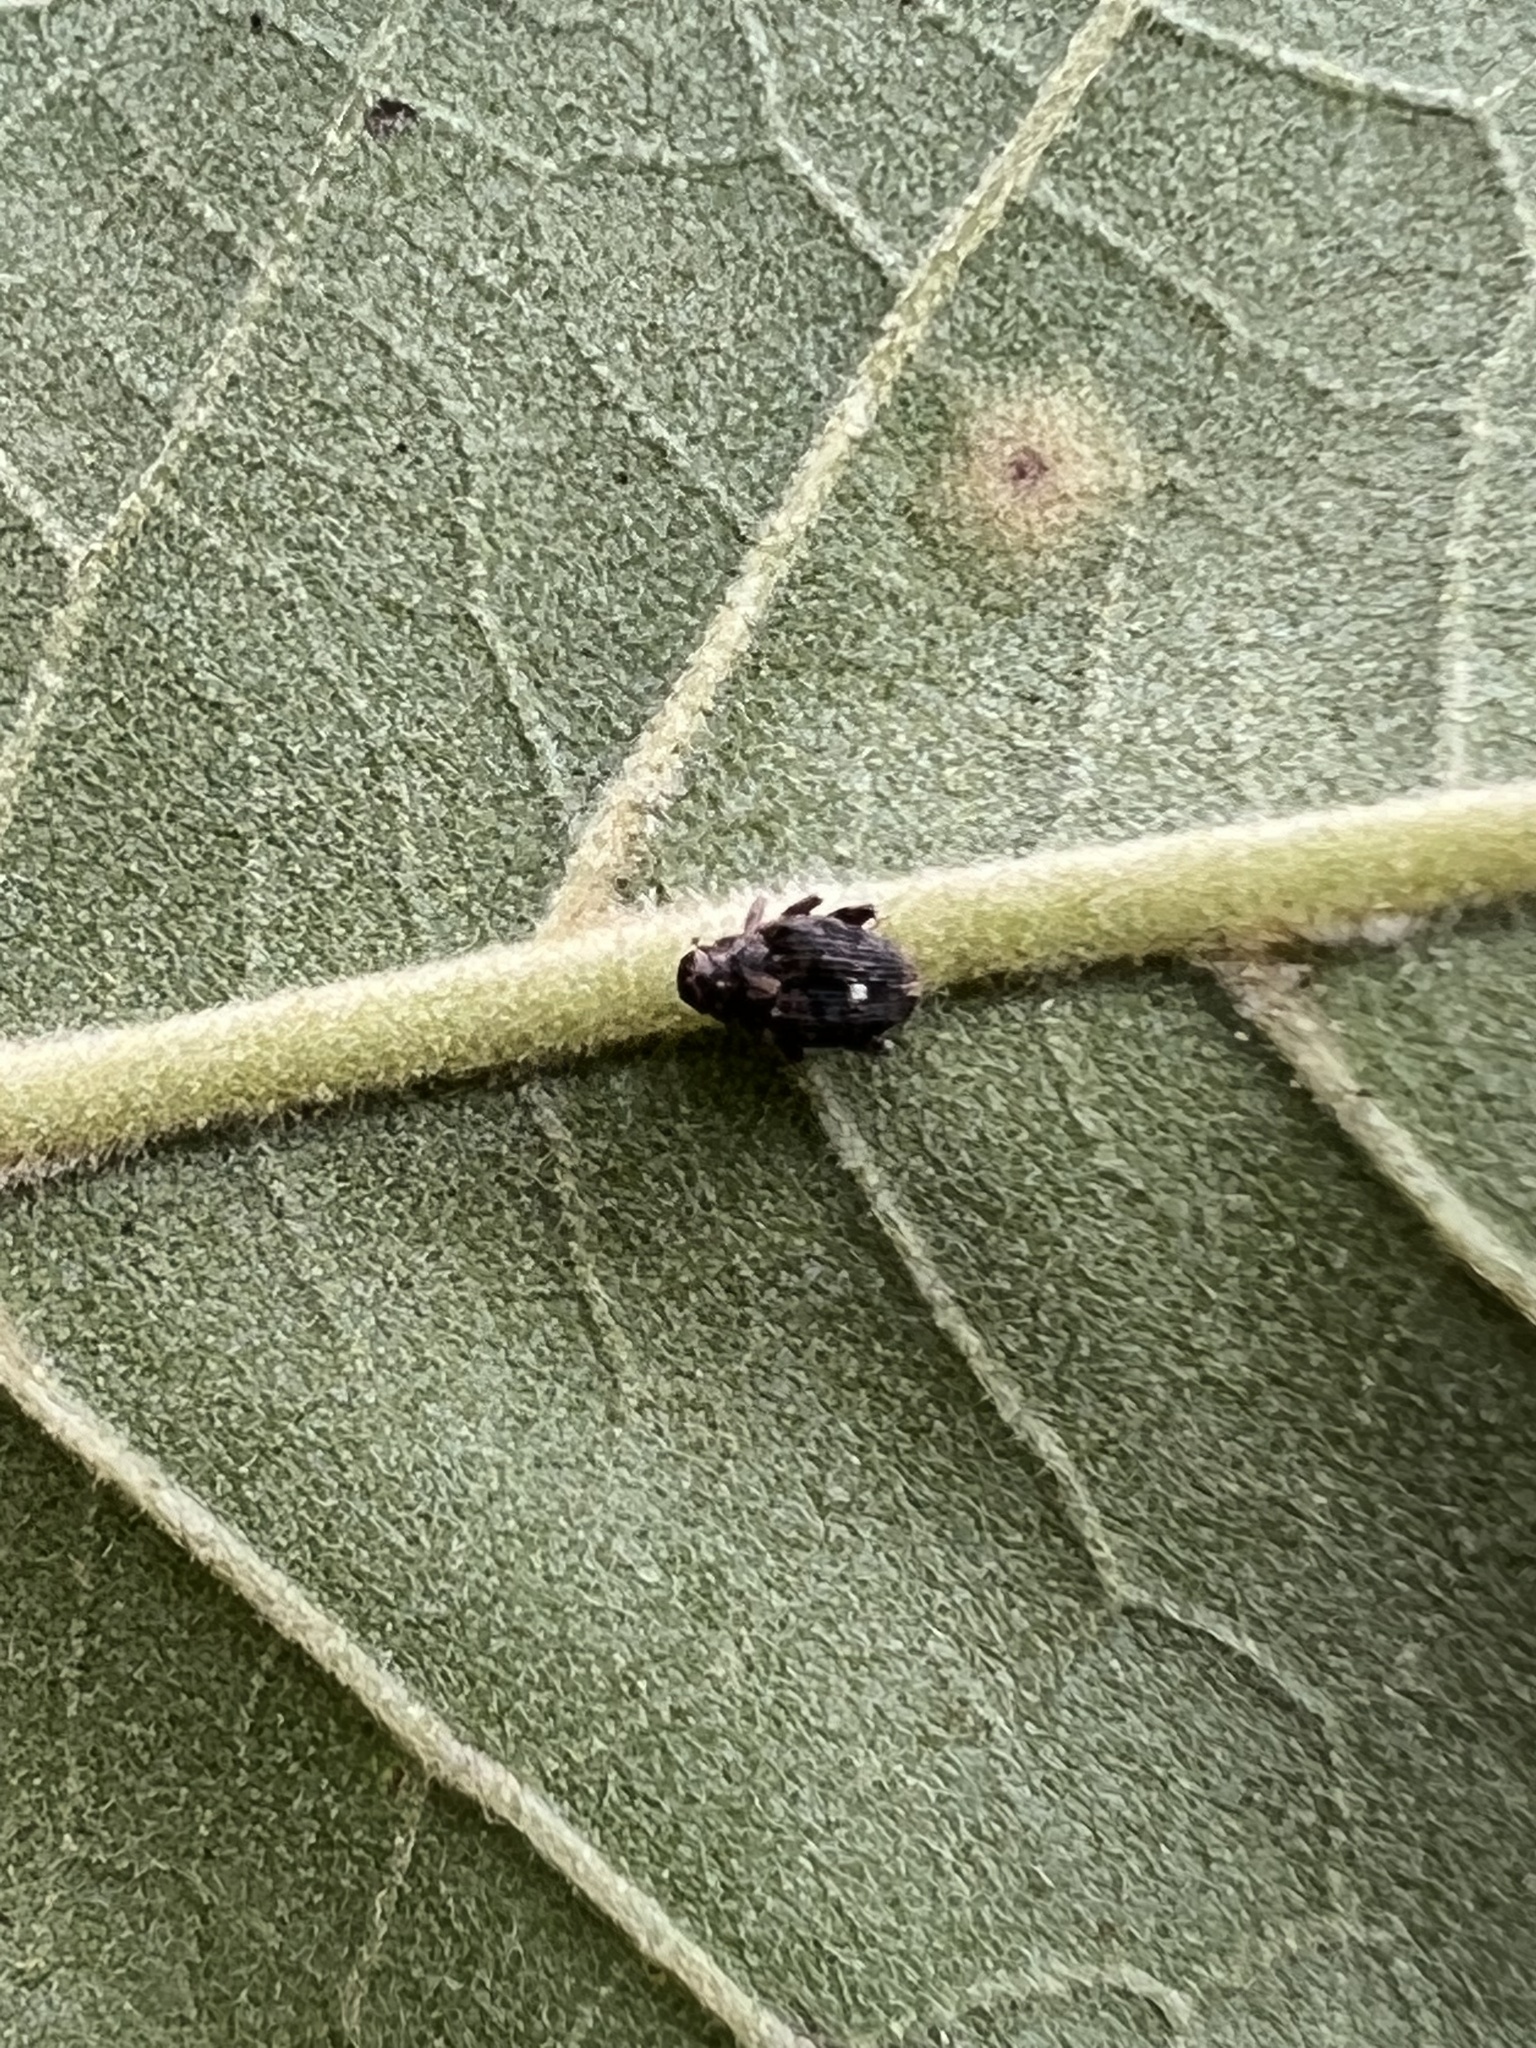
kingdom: Animalia
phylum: Arthropoda
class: Insecta
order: Coleoptera
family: Curculionidae
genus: Lechriops
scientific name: Lechriops oculatus
